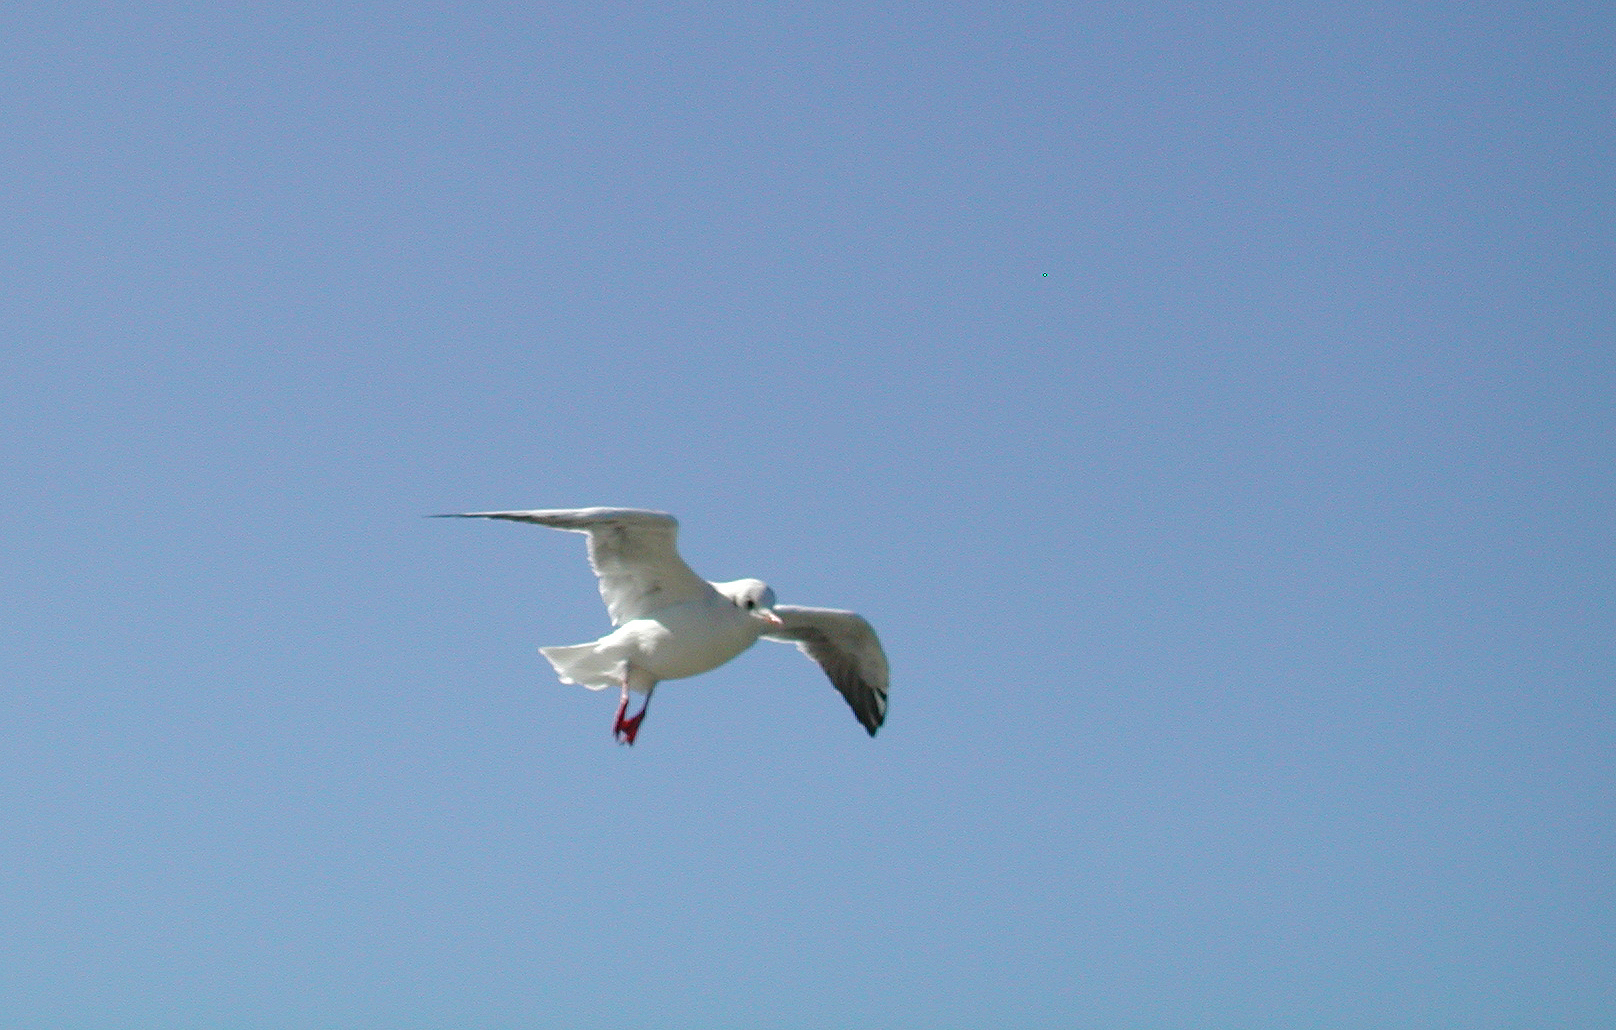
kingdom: Animalia
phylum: Chordata
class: Aves
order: Charadriiformes
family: Laridae
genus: Chroicocephalus
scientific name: Chroicocephalus ridibundus
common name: Black-headed gull
